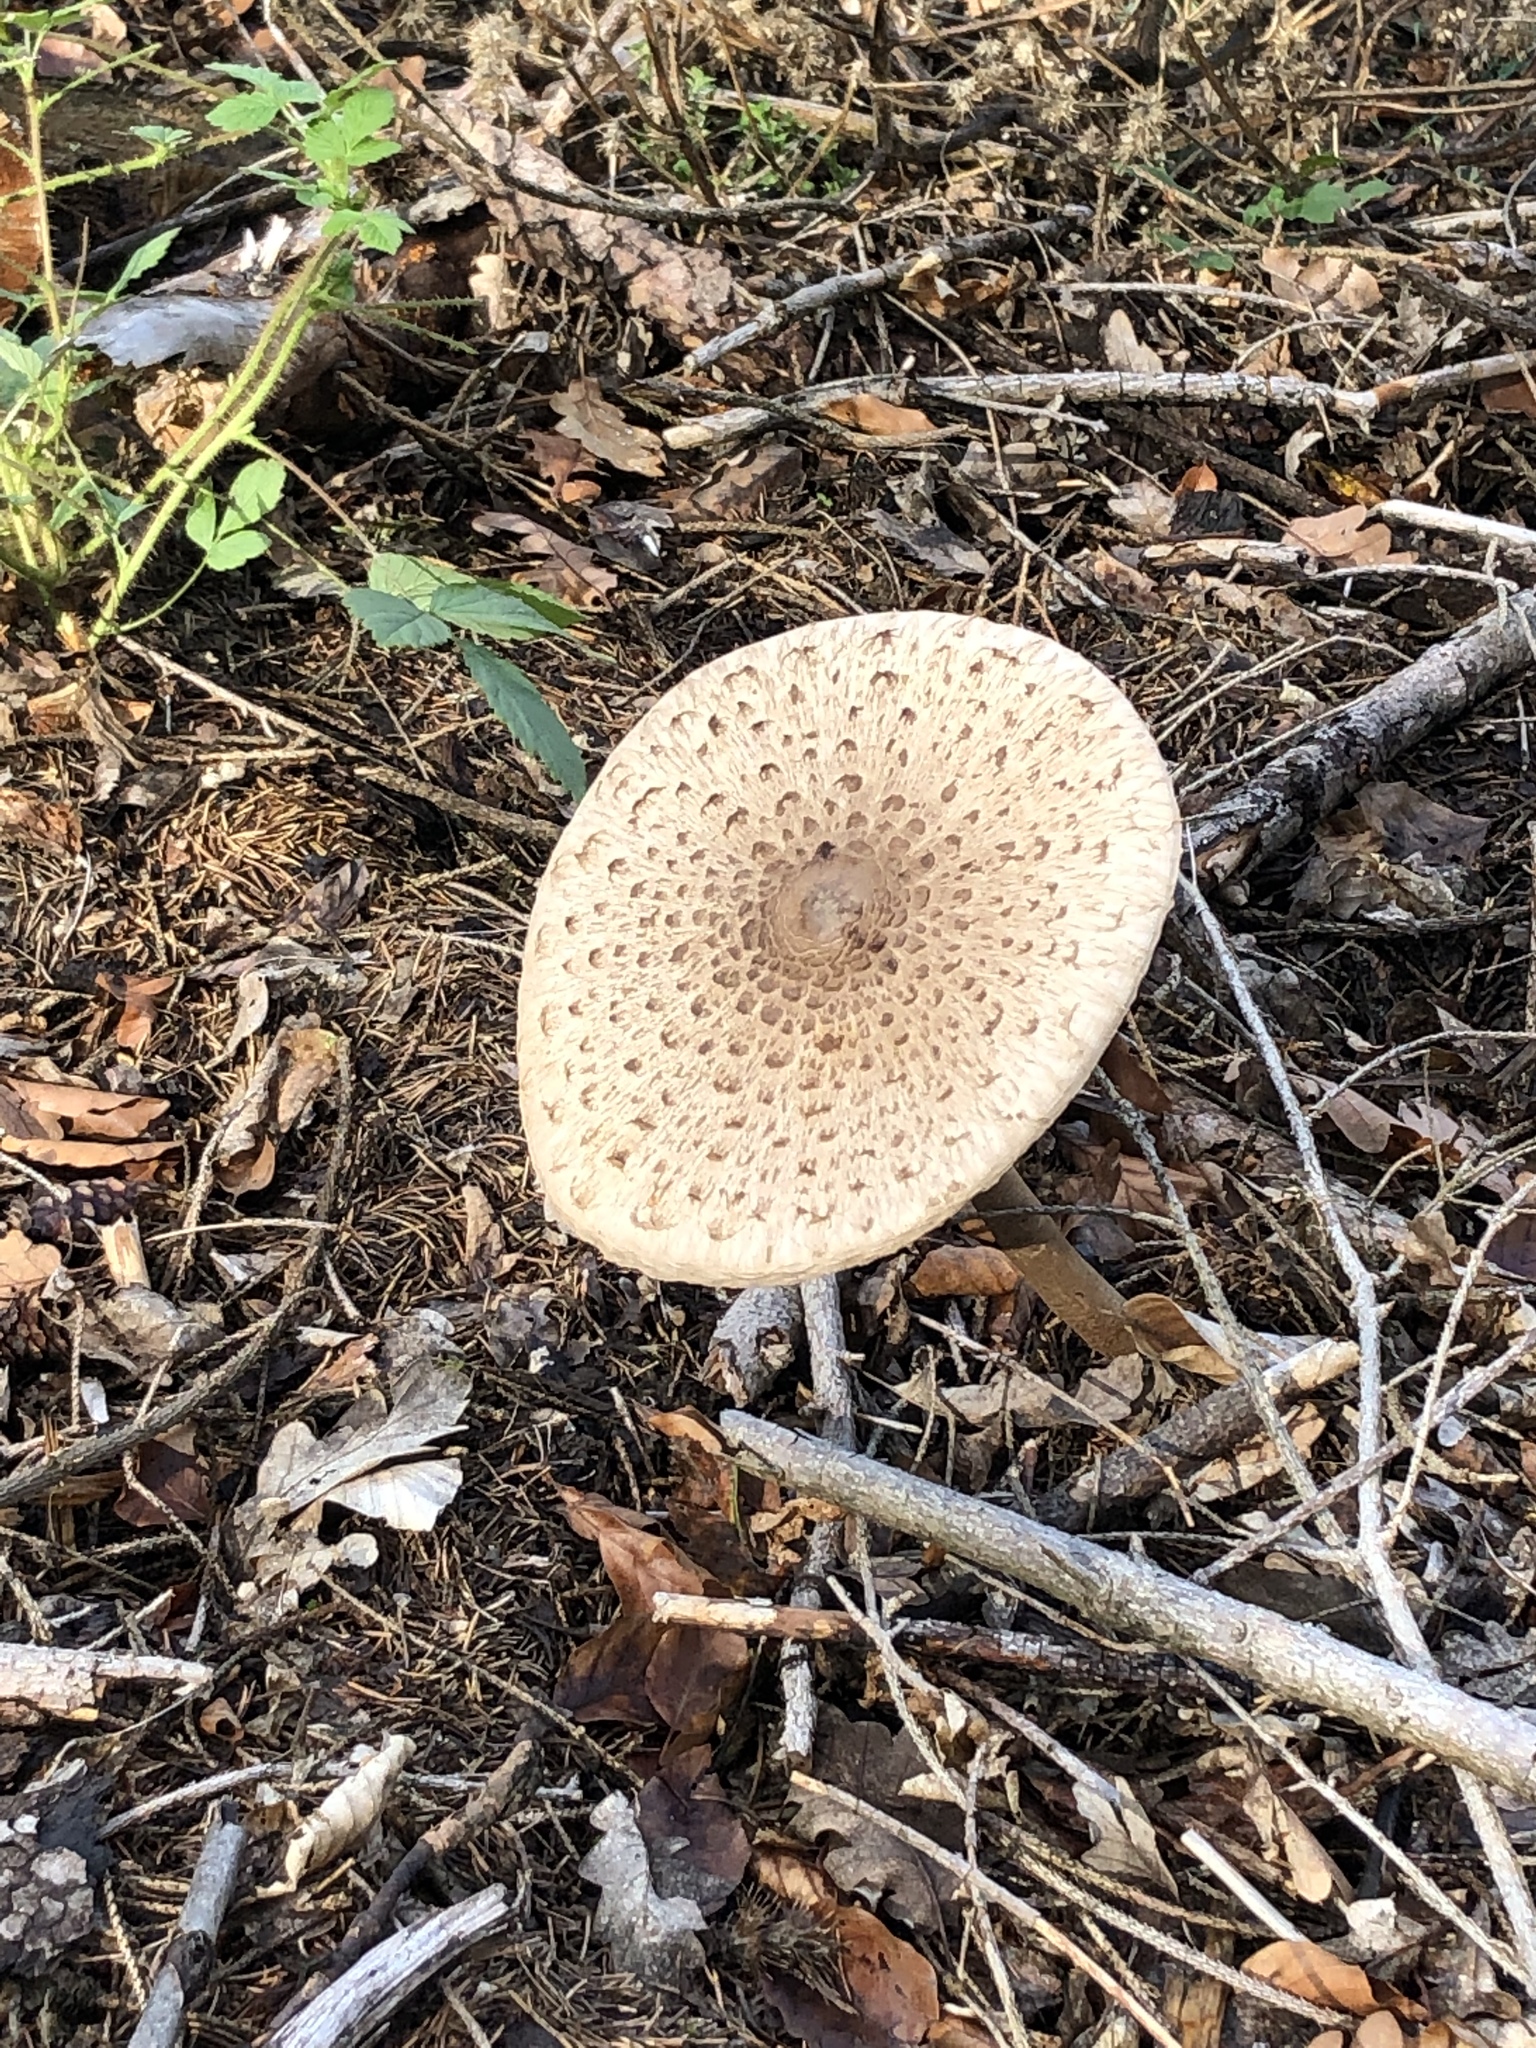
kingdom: Fungi
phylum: Basidiomycota
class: Agaricomycetes
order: Agaricales
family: Agaricaceae
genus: Macrolepiota
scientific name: Macrolepiota procera
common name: Parasol
